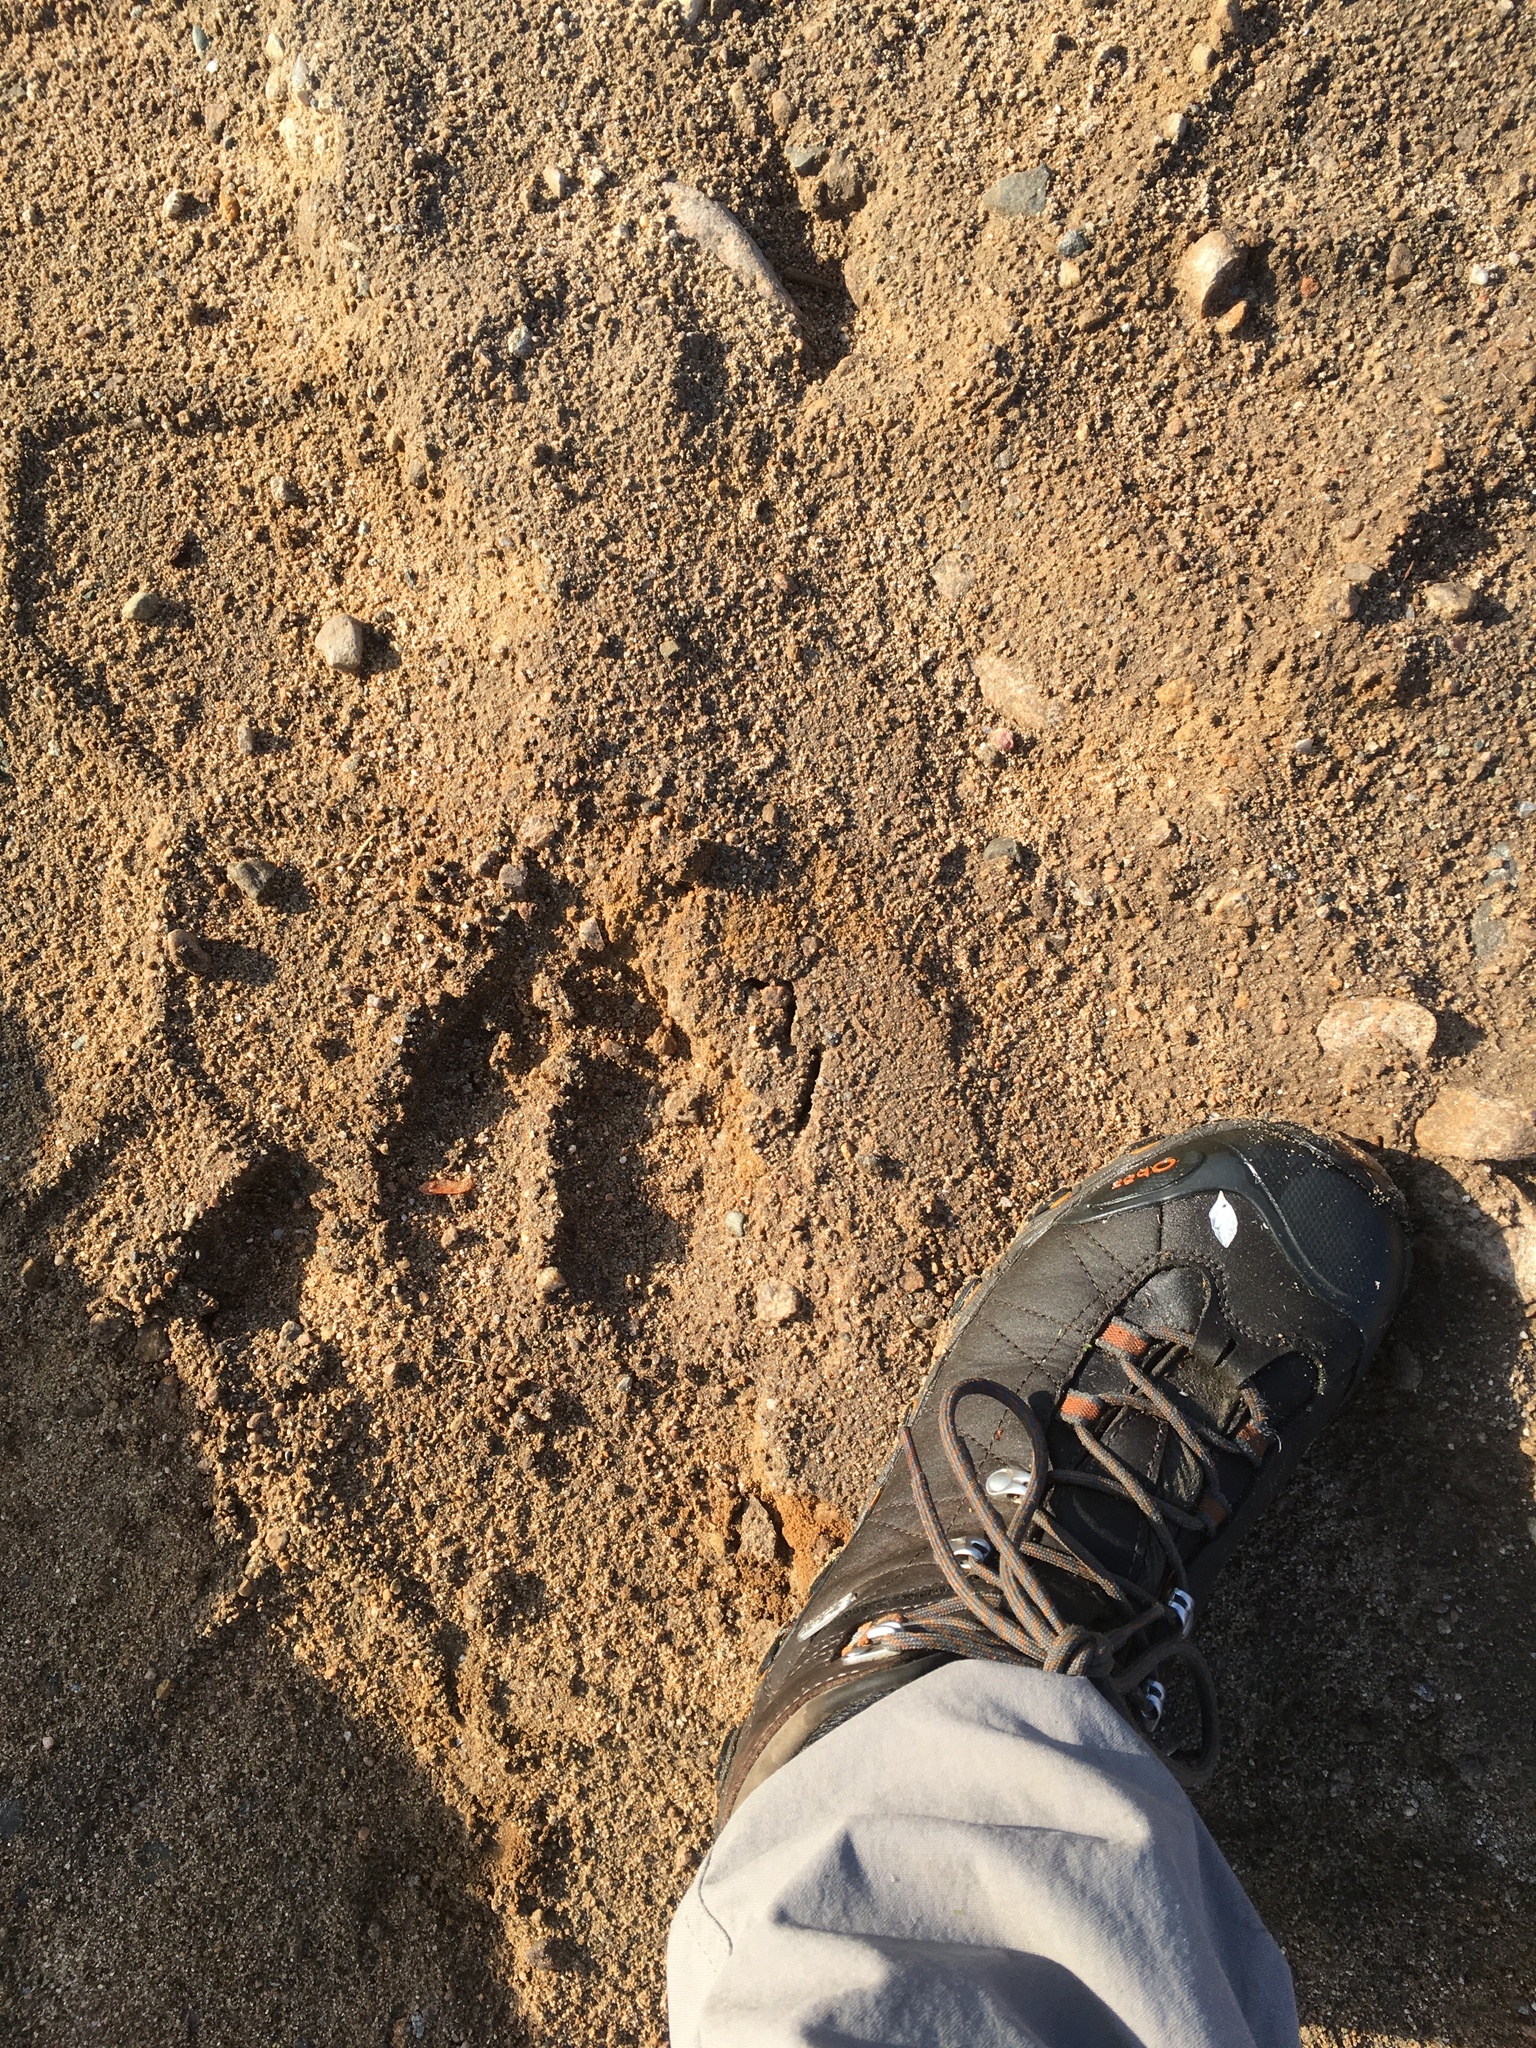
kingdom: Animalia
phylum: Chordata
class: Mammalia
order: Artiodactyla
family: Cervidae
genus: Alces
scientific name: Alces alces
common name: Moose
